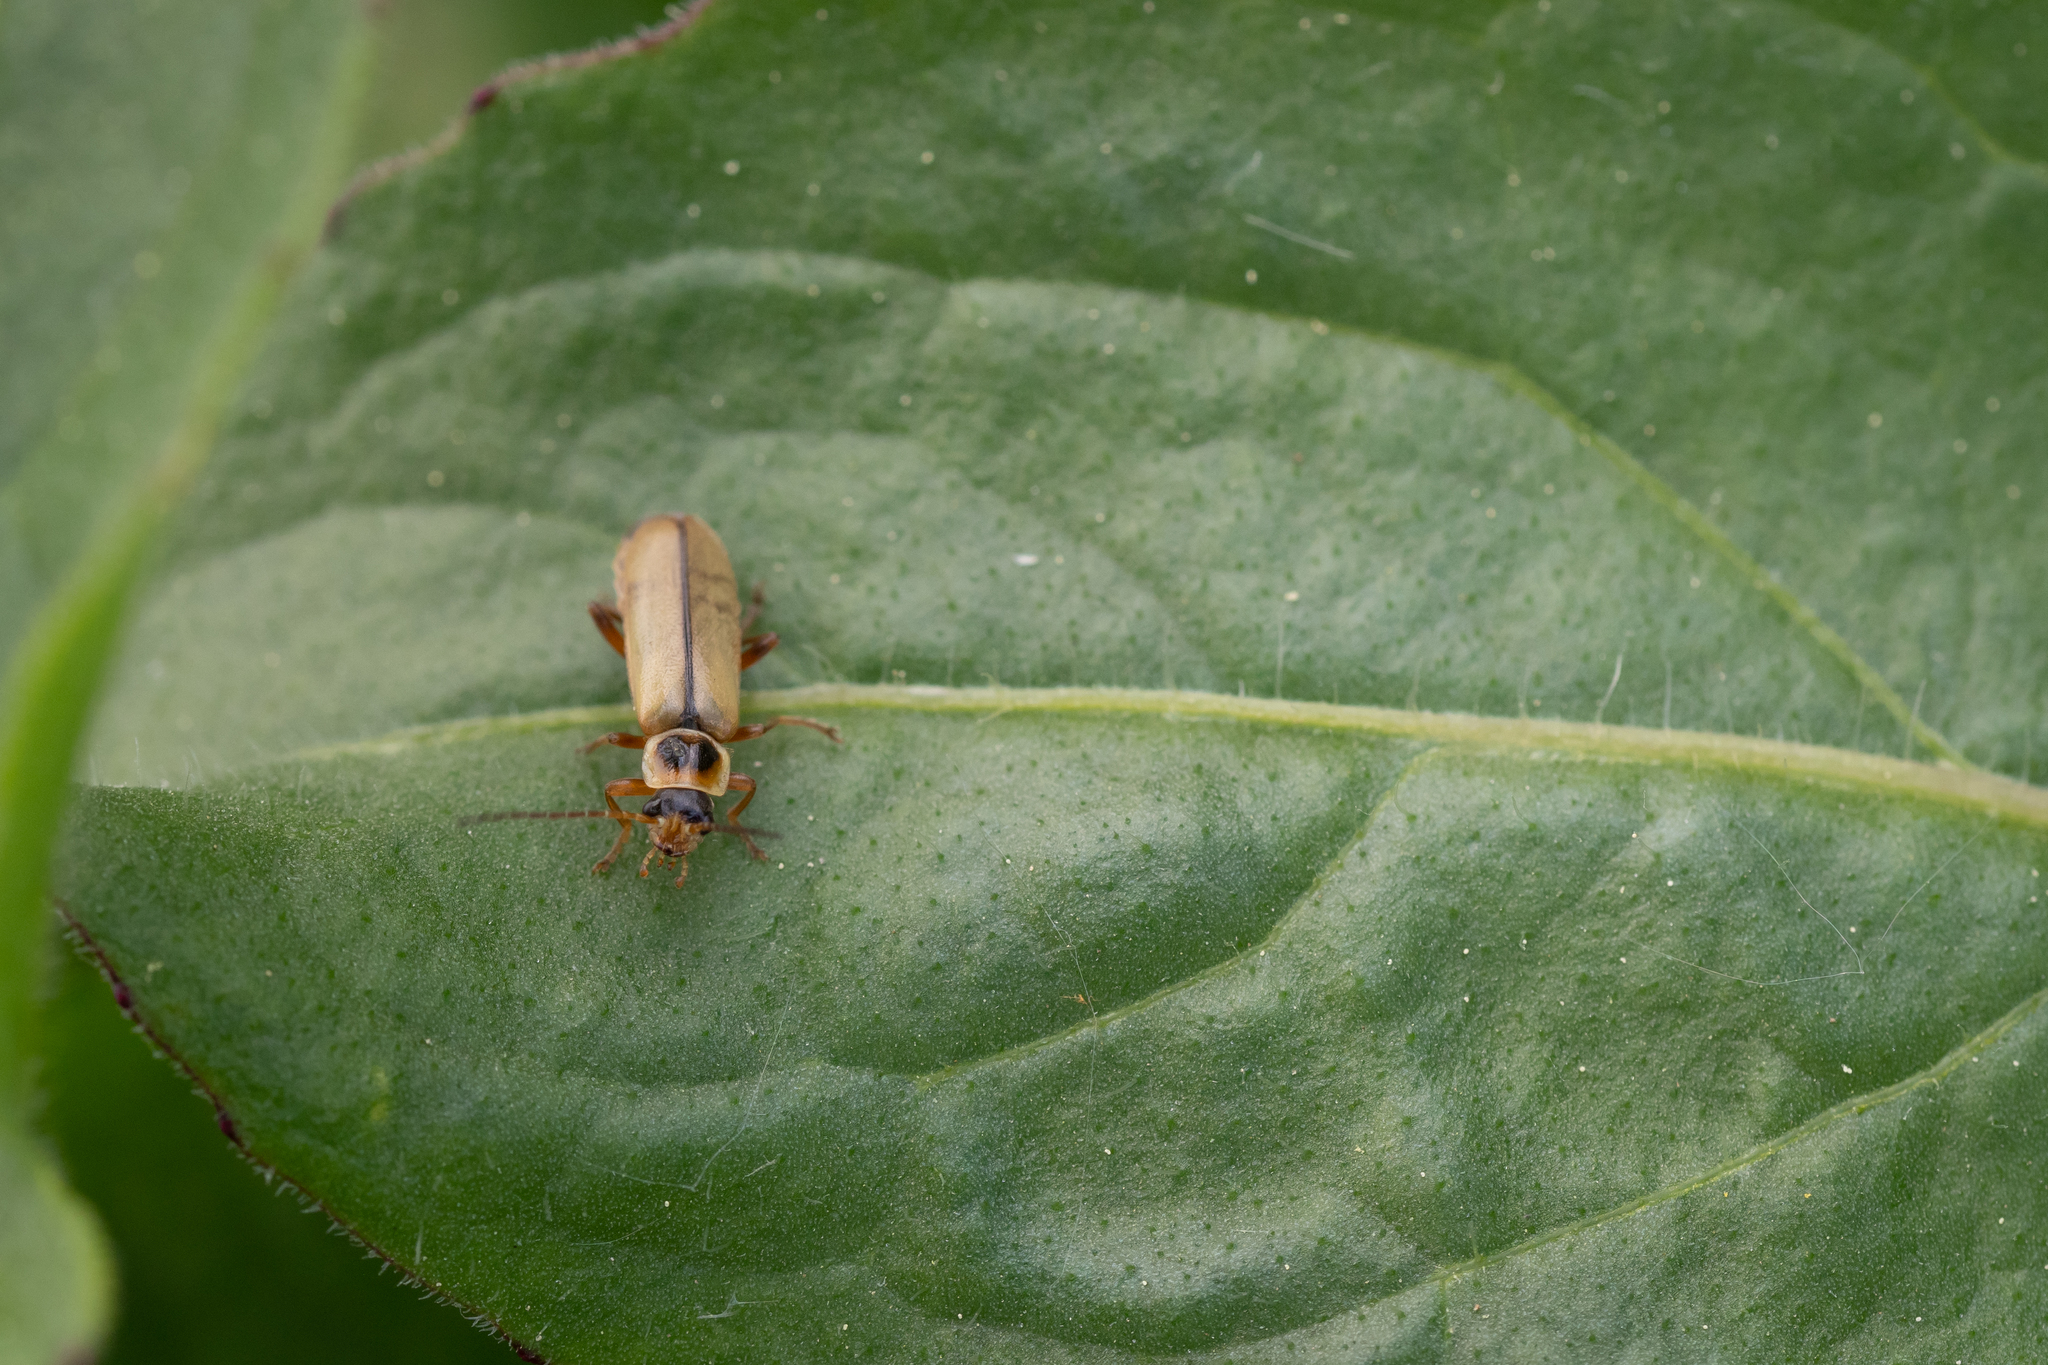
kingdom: Animalia
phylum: Arthropoda
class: Insecta
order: Coleoptera
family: Cantharidae
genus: Metacantharis
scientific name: Metacantharis clypeata
